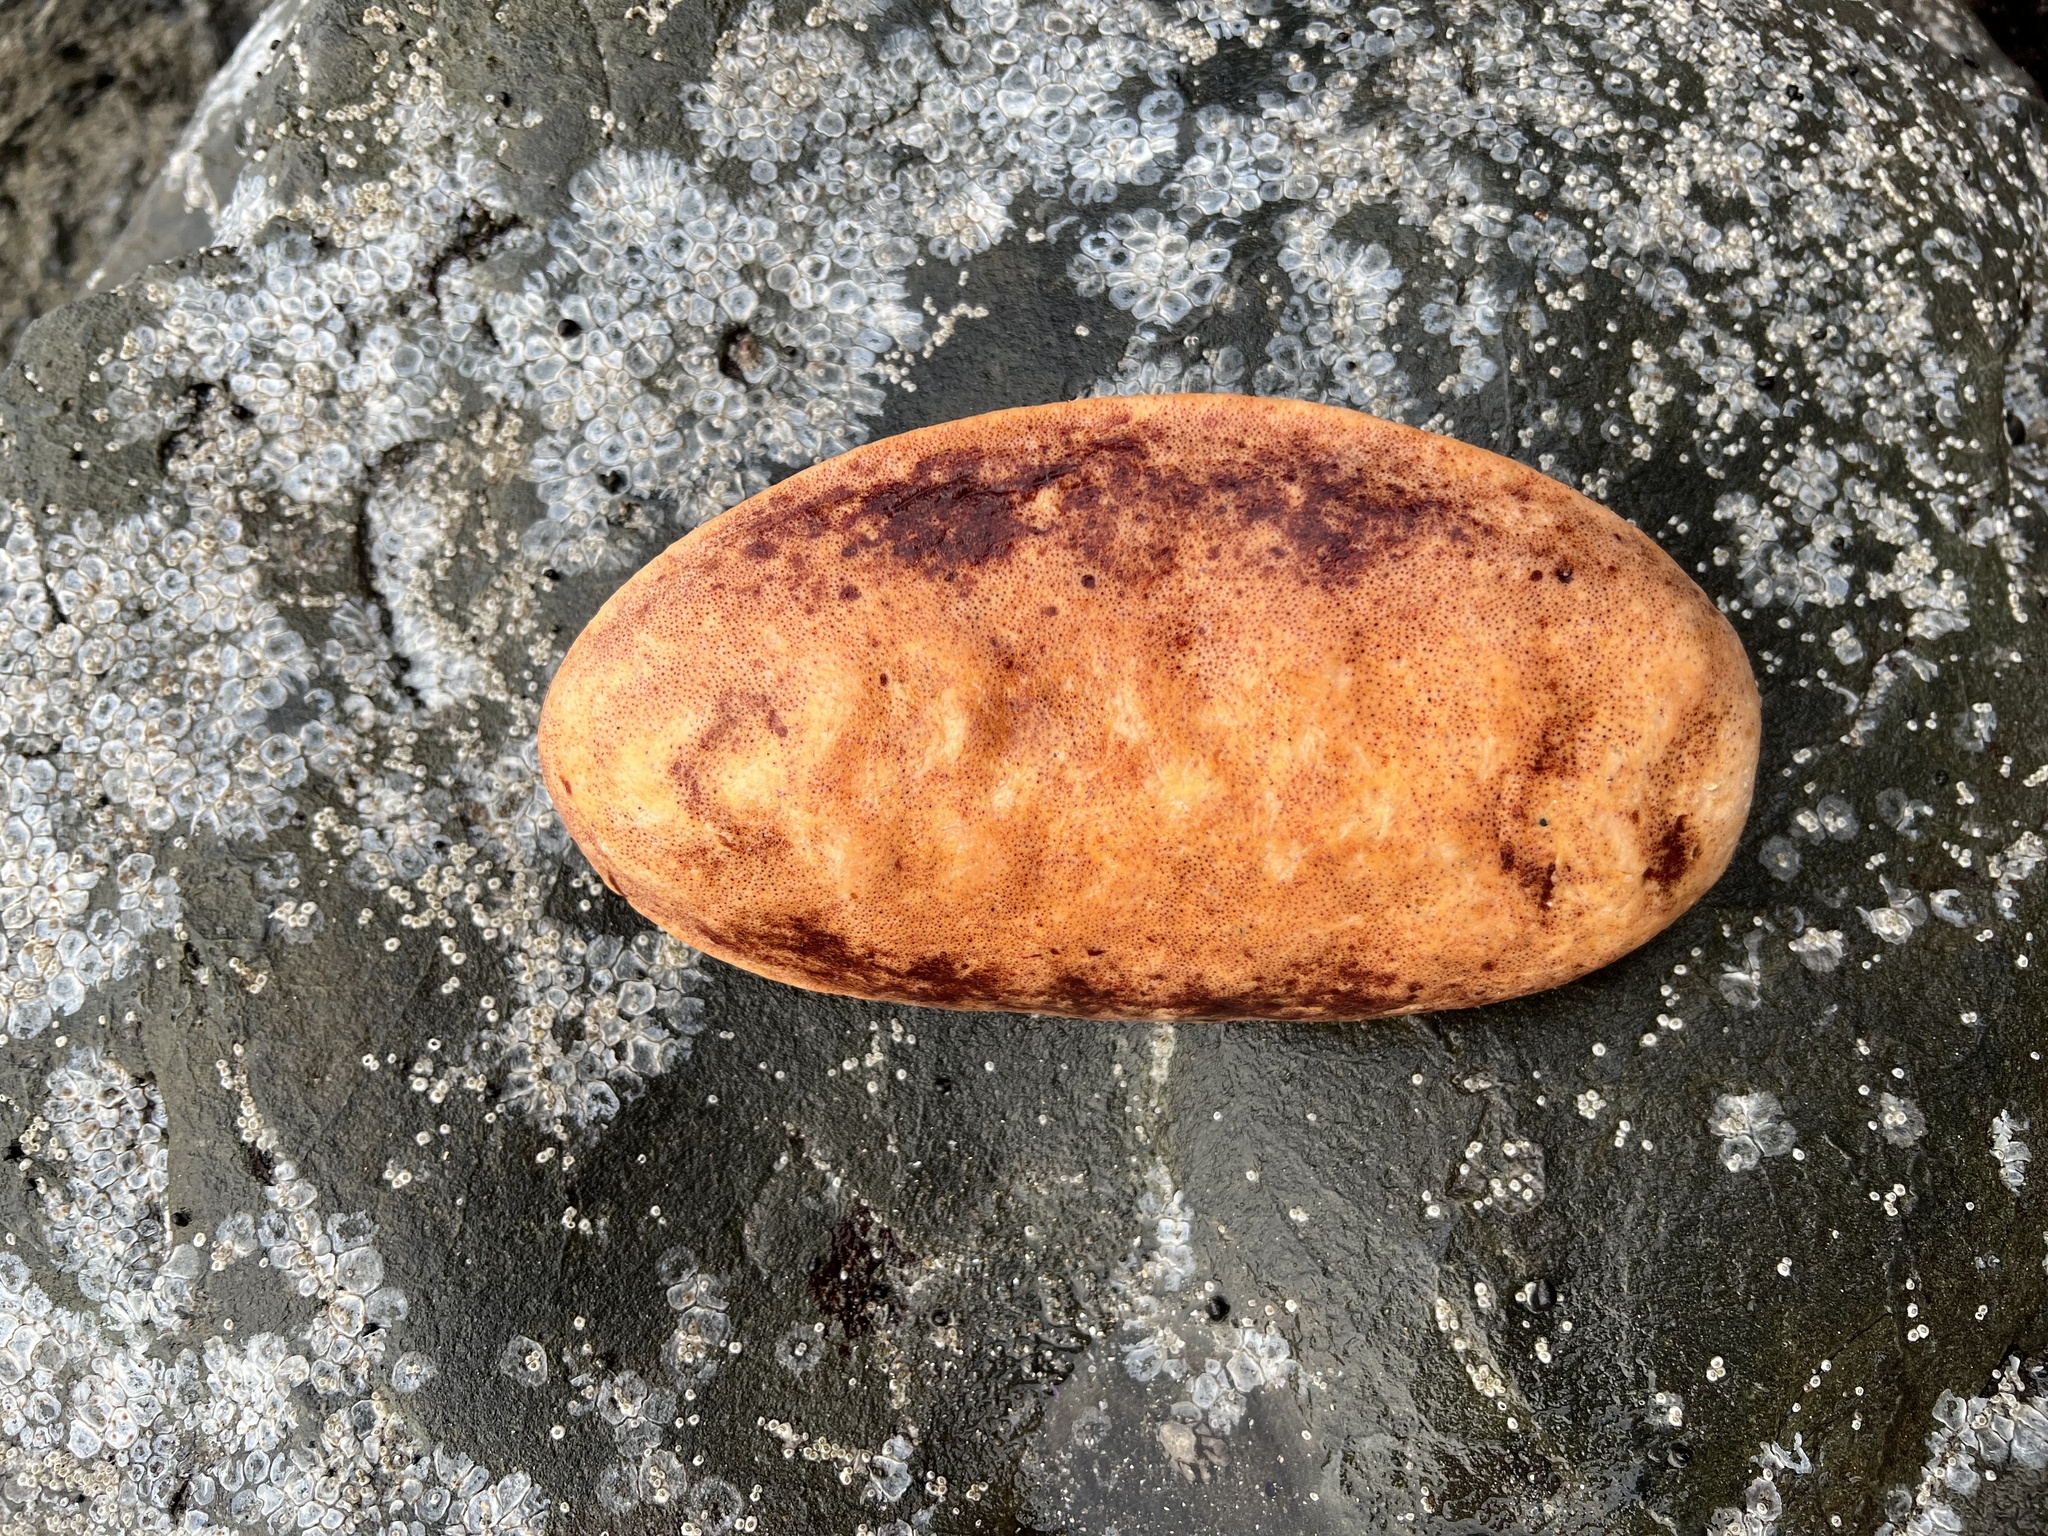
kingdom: Animalia
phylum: Mollusca
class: Polyplacophora
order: Chitonida
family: Acanthochitonidae
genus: Cryptochiton
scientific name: Cryptochiton stelleri
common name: Giant pacific chiton
